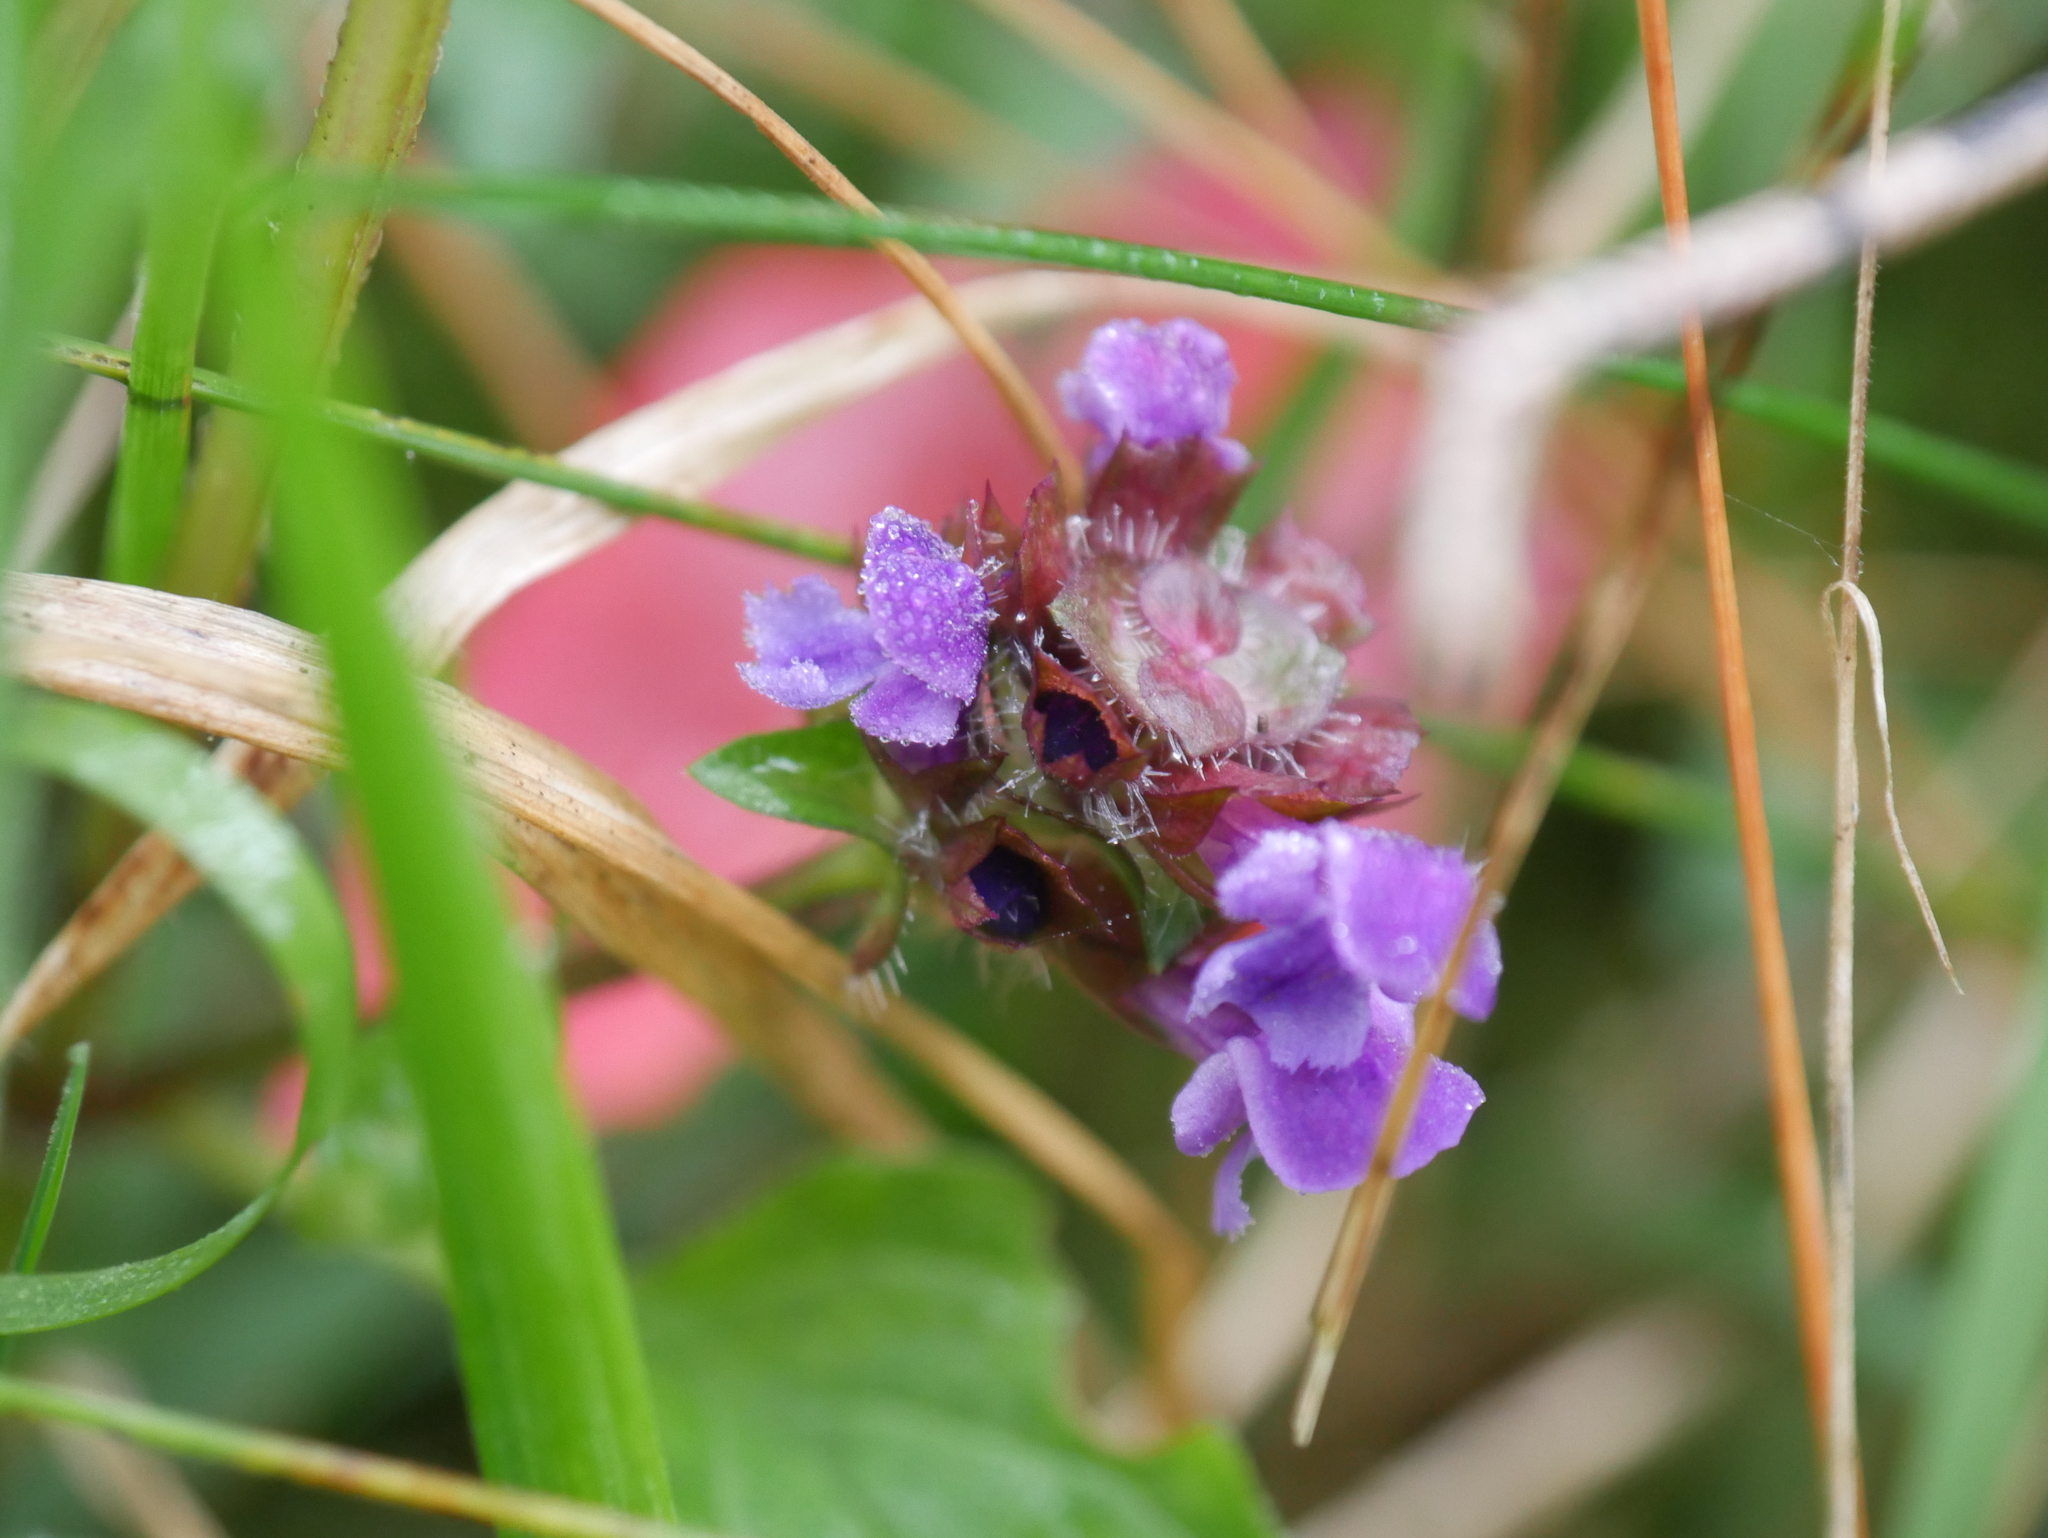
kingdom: Plantae
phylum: Tracheophyta
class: Magnoliopsida
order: Lamiales
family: Lamiaceae
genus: Prunella
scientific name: Prunella vulgaris
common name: Heal-all
